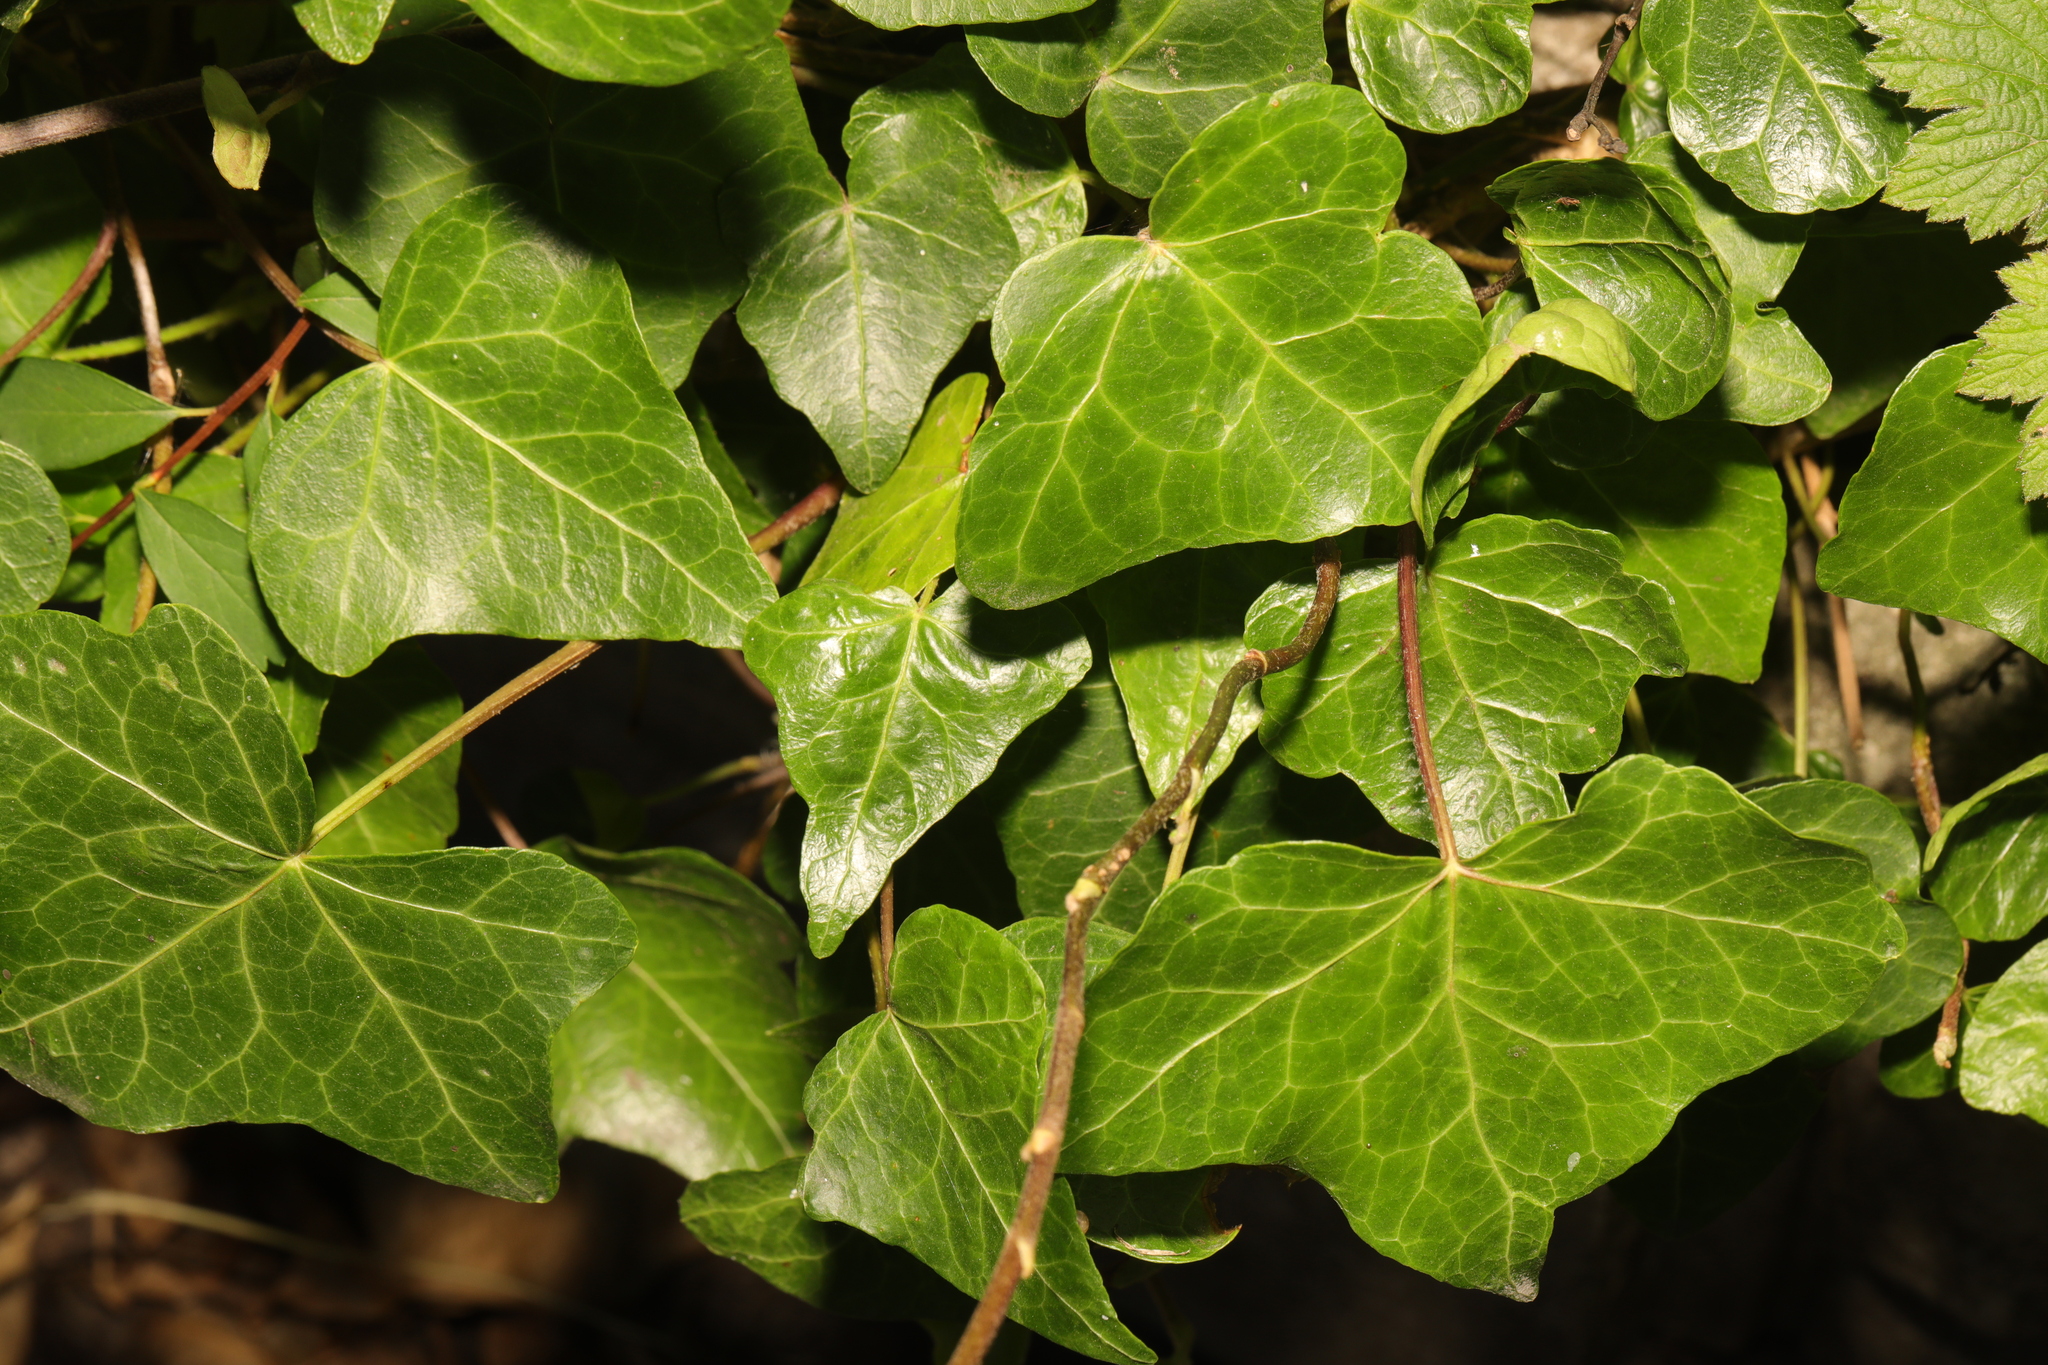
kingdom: Plantae
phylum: Tracheophyta
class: Magnoliopsida
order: Apiales
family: Araliaceae
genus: Hedera
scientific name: Hedera helix
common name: Ivy
